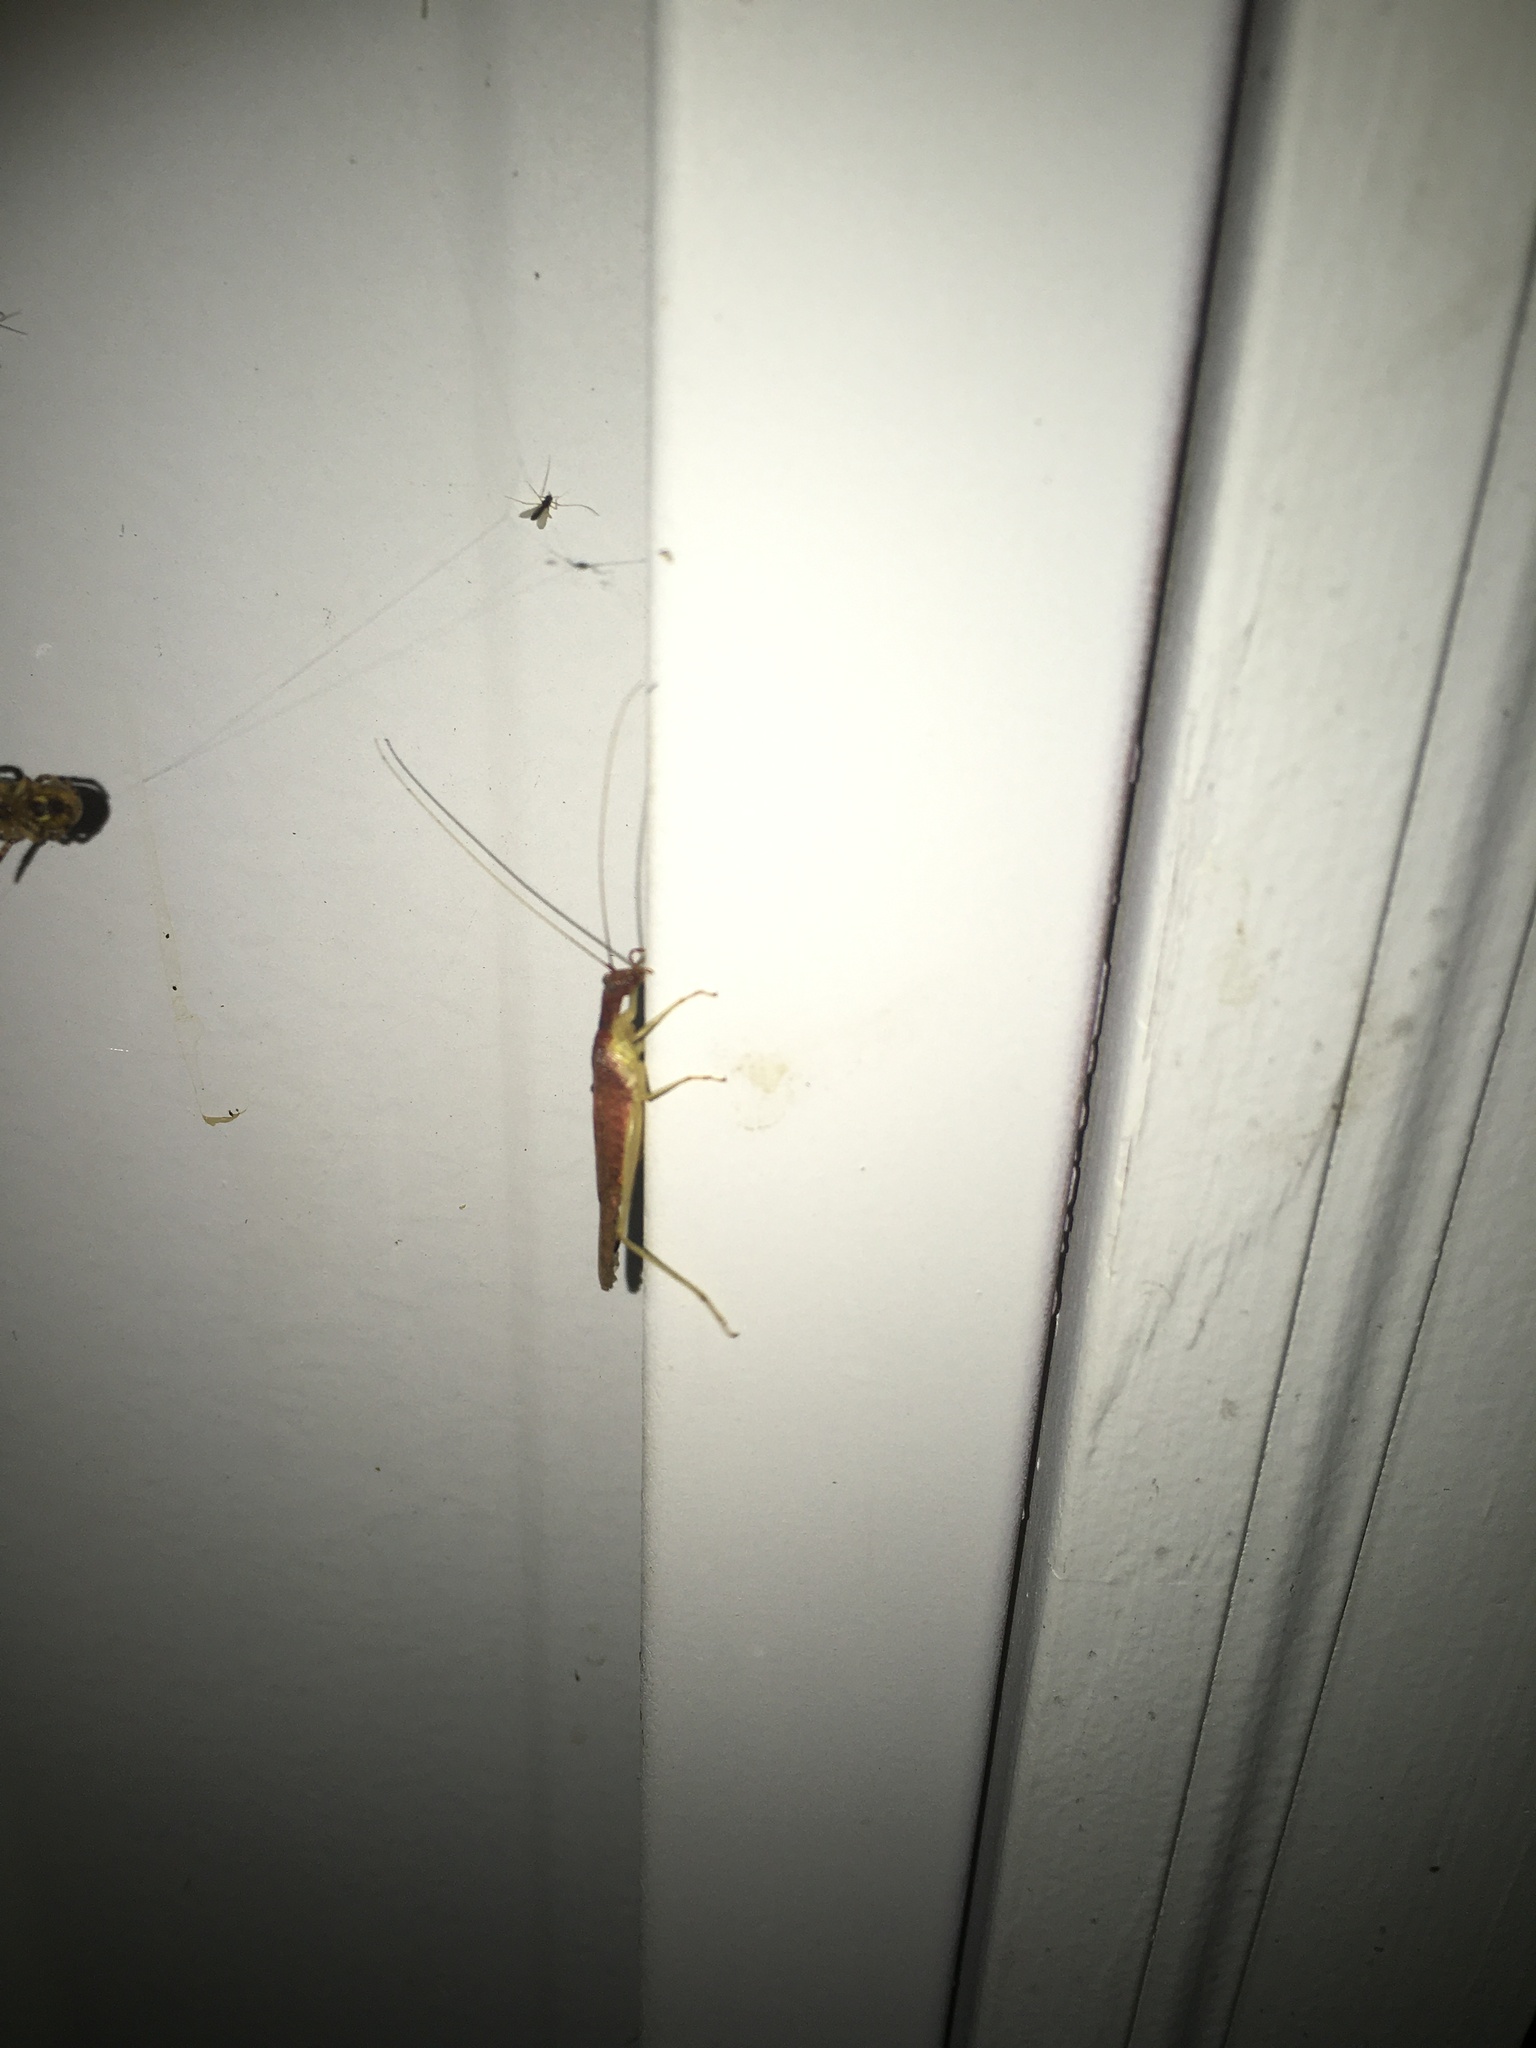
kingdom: Animalia
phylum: Arthropoda
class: Insecta
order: Orthoptera
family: Gryllidae
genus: Neoxabea
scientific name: Neoxabea bipunctata
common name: Two-spotted tree cricket
